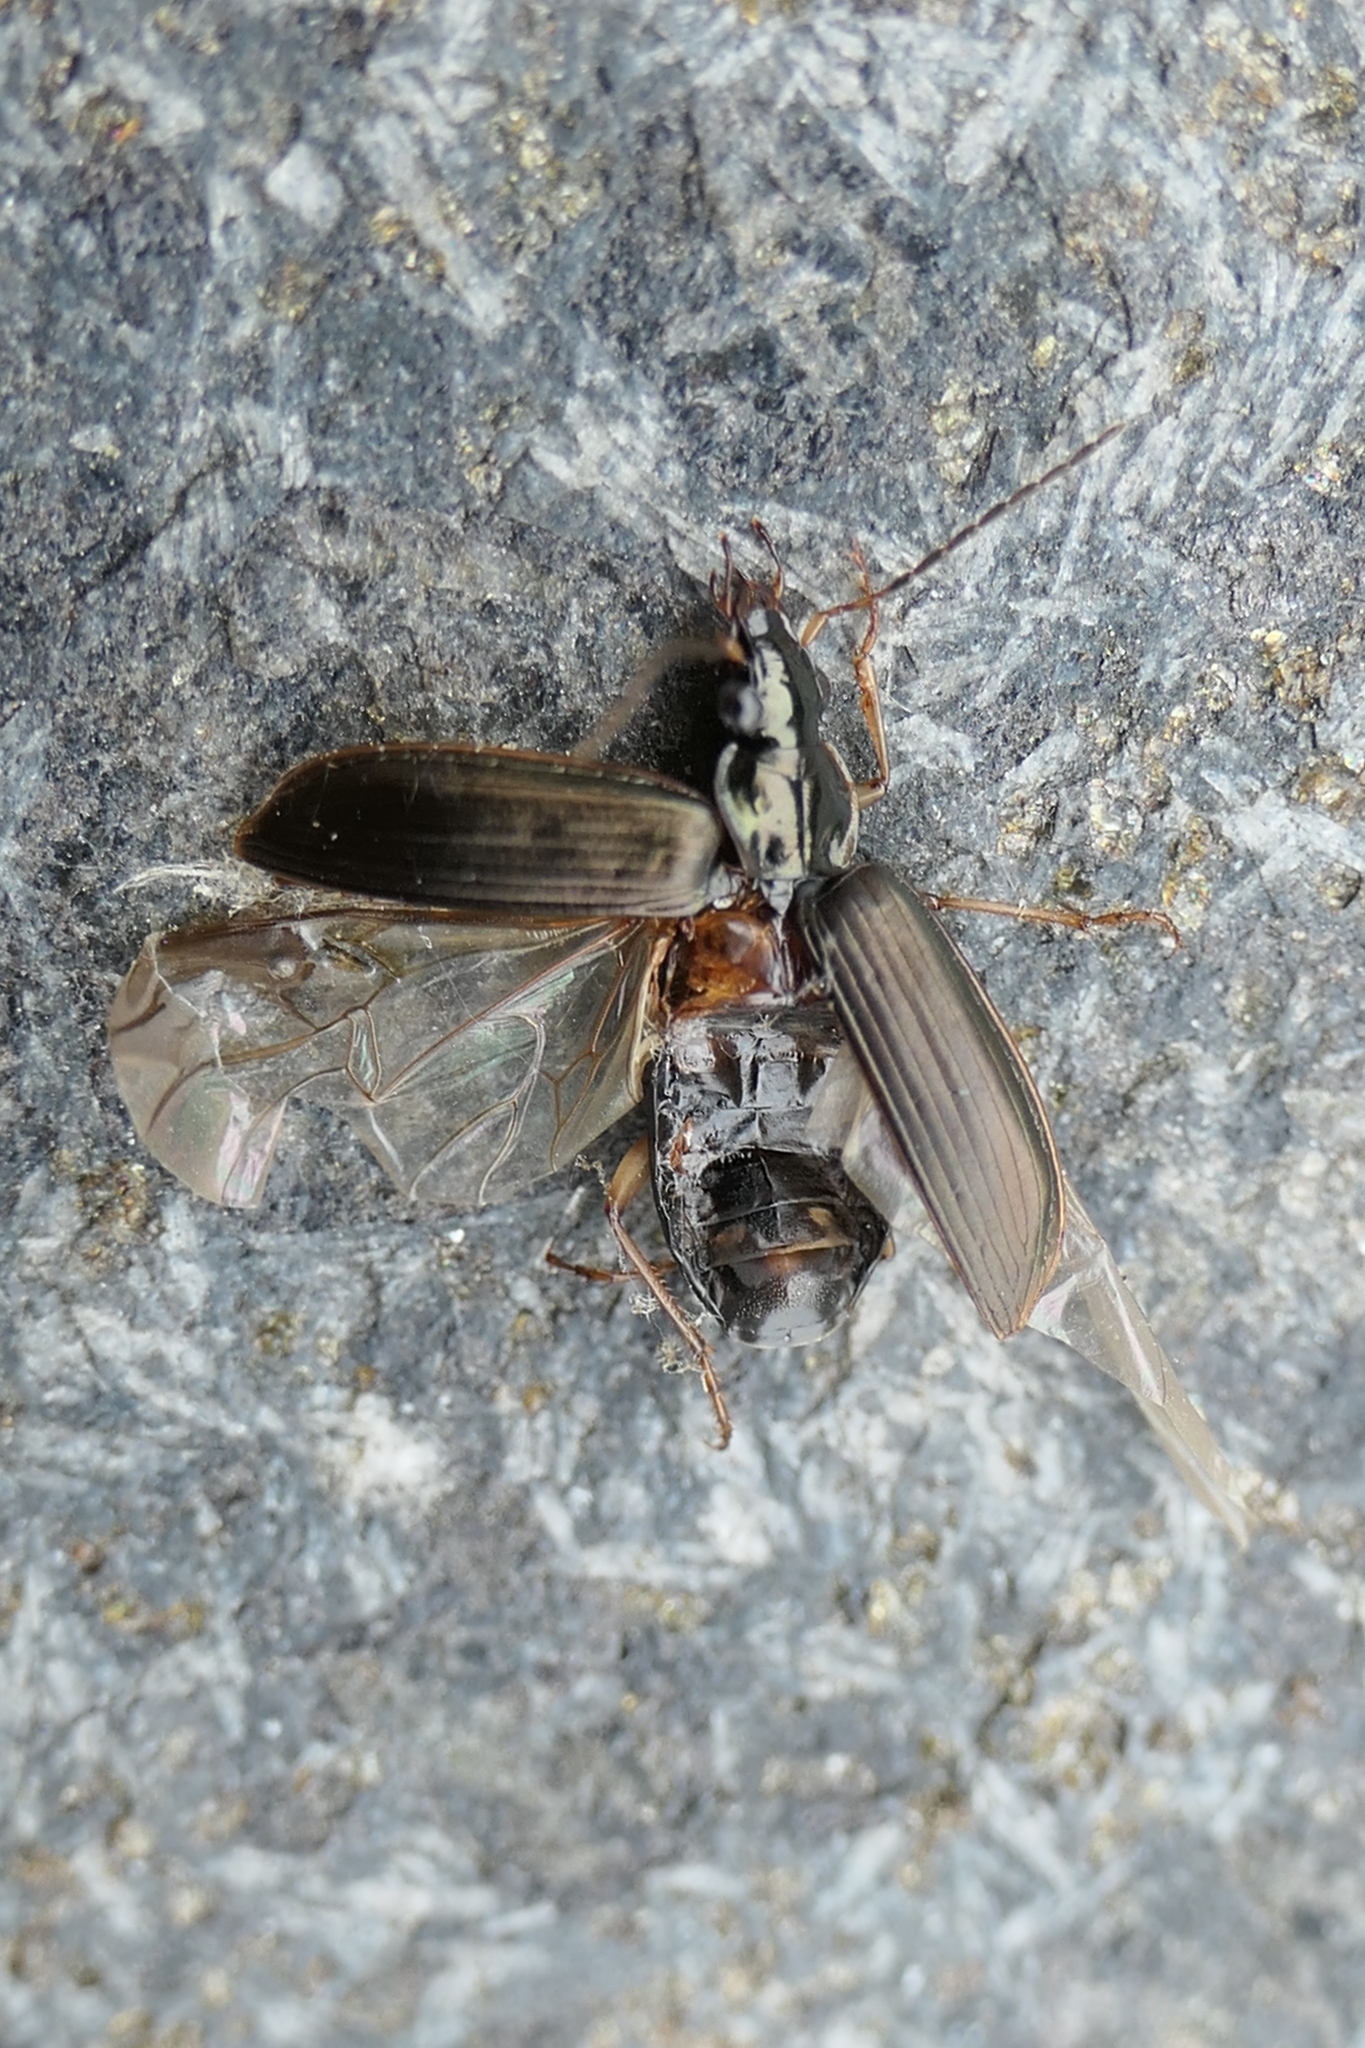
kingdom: Animalia
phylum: Arthropoda
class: Insecta
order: Coleoptera
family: Carabidae
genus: Notagonum
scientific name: Notagonum submetallicum
